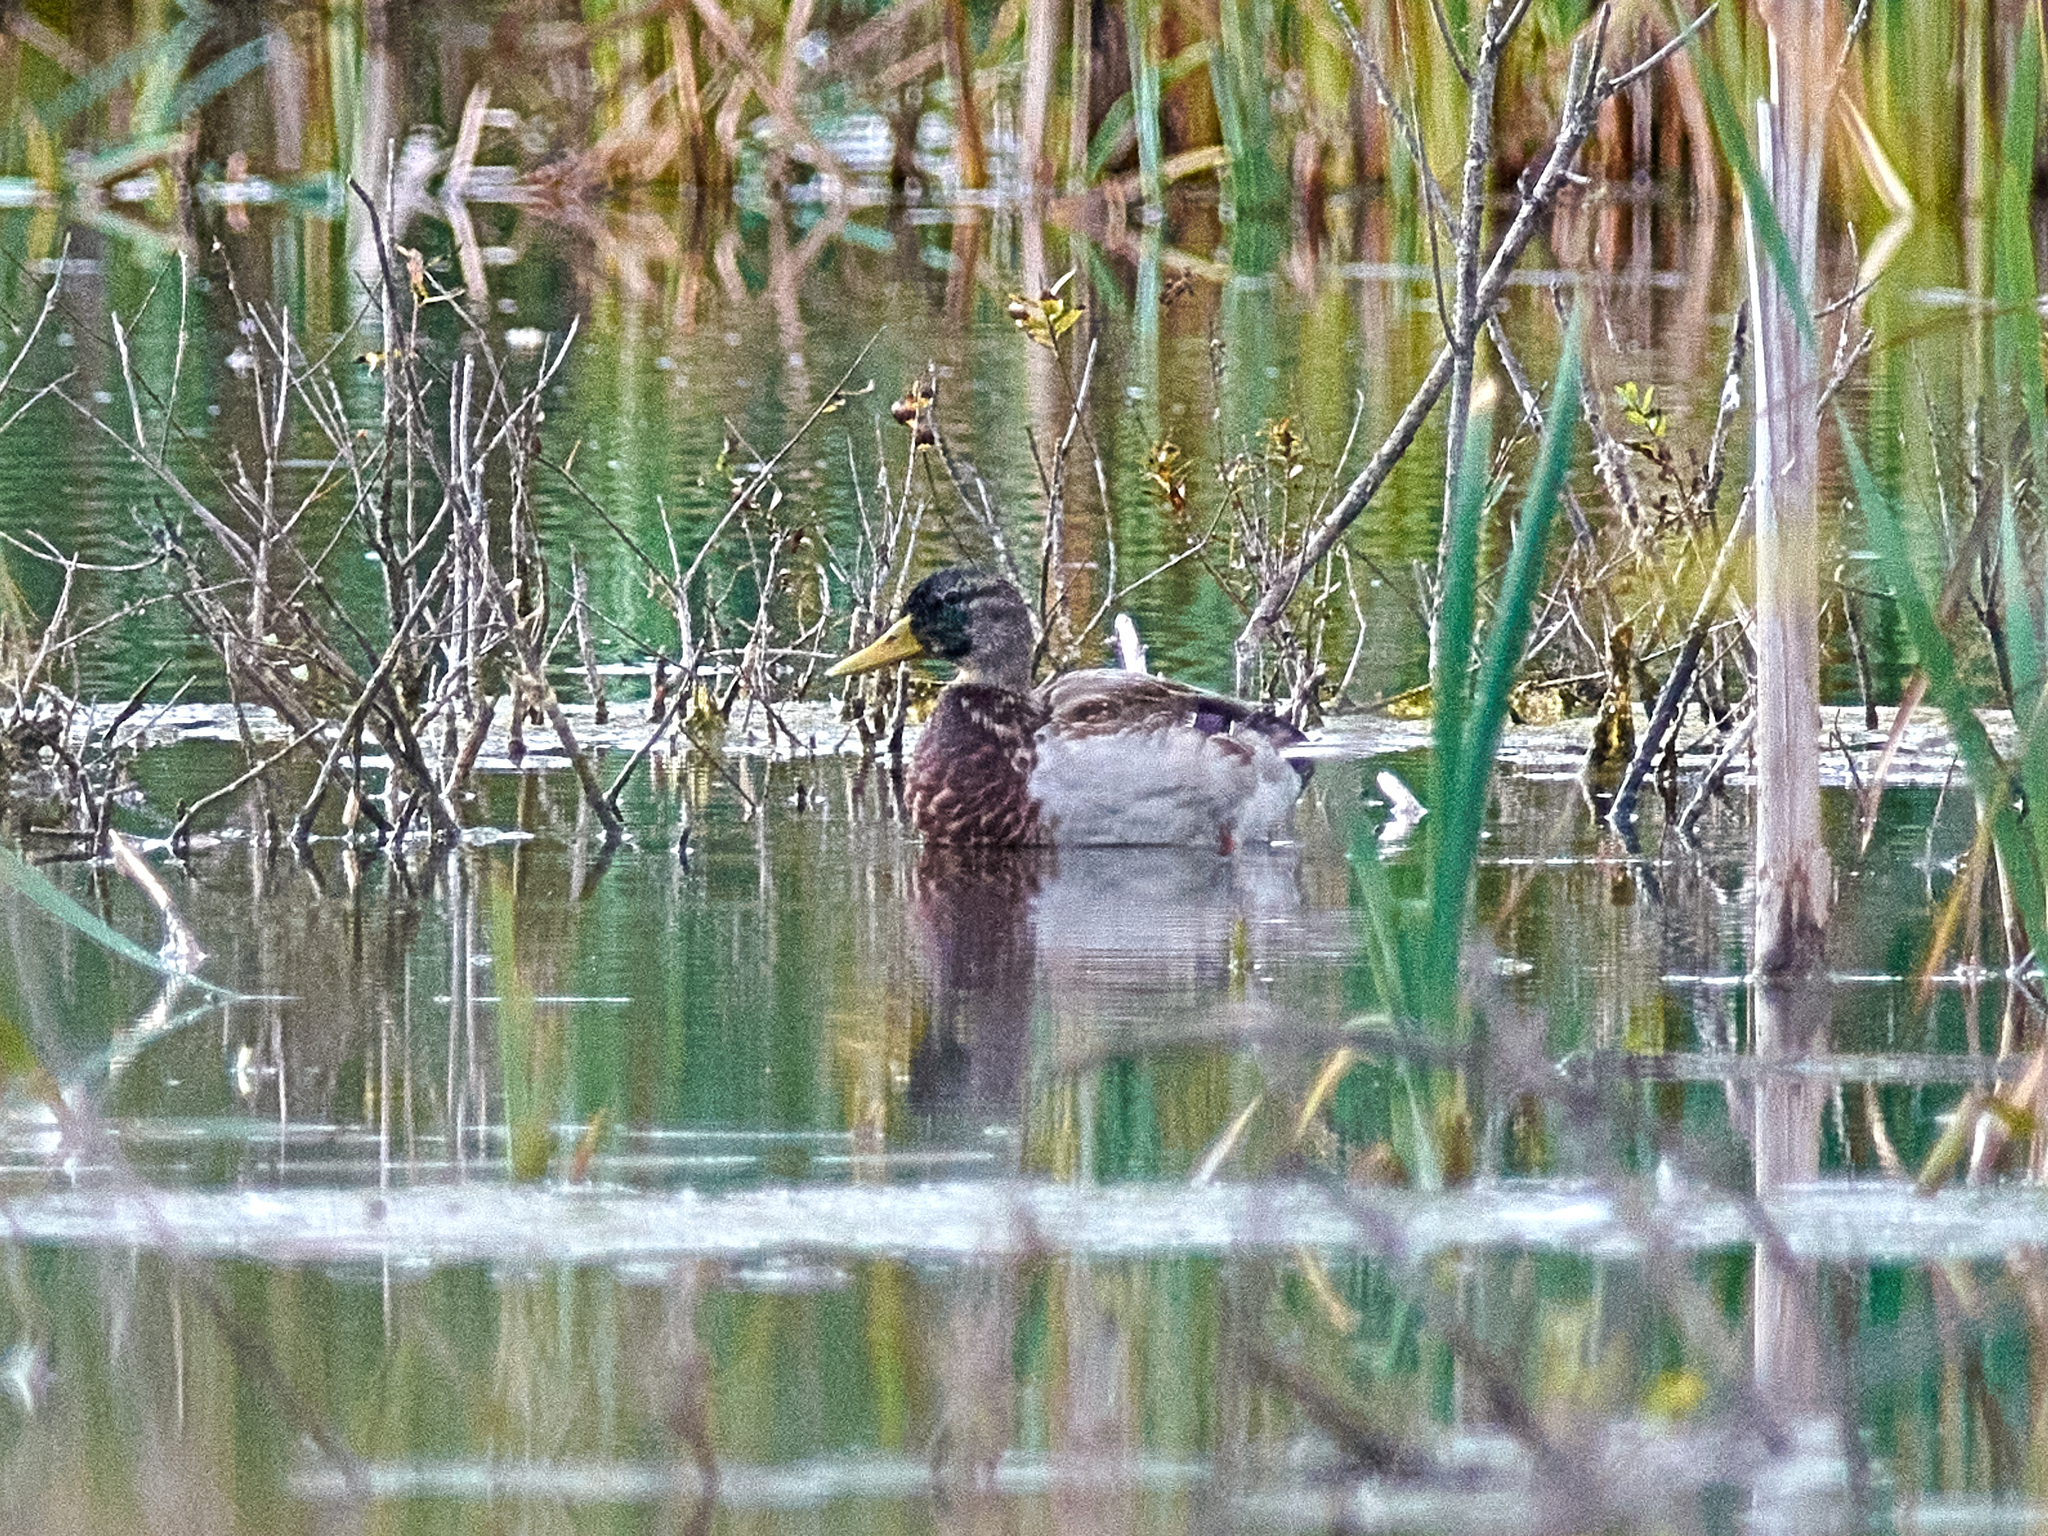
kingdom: Animalia
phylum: Chordata
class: Aves
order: Anseriformes
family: Anatidae
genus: Anas
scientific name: Anas platyrhynchos
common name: Mallard
